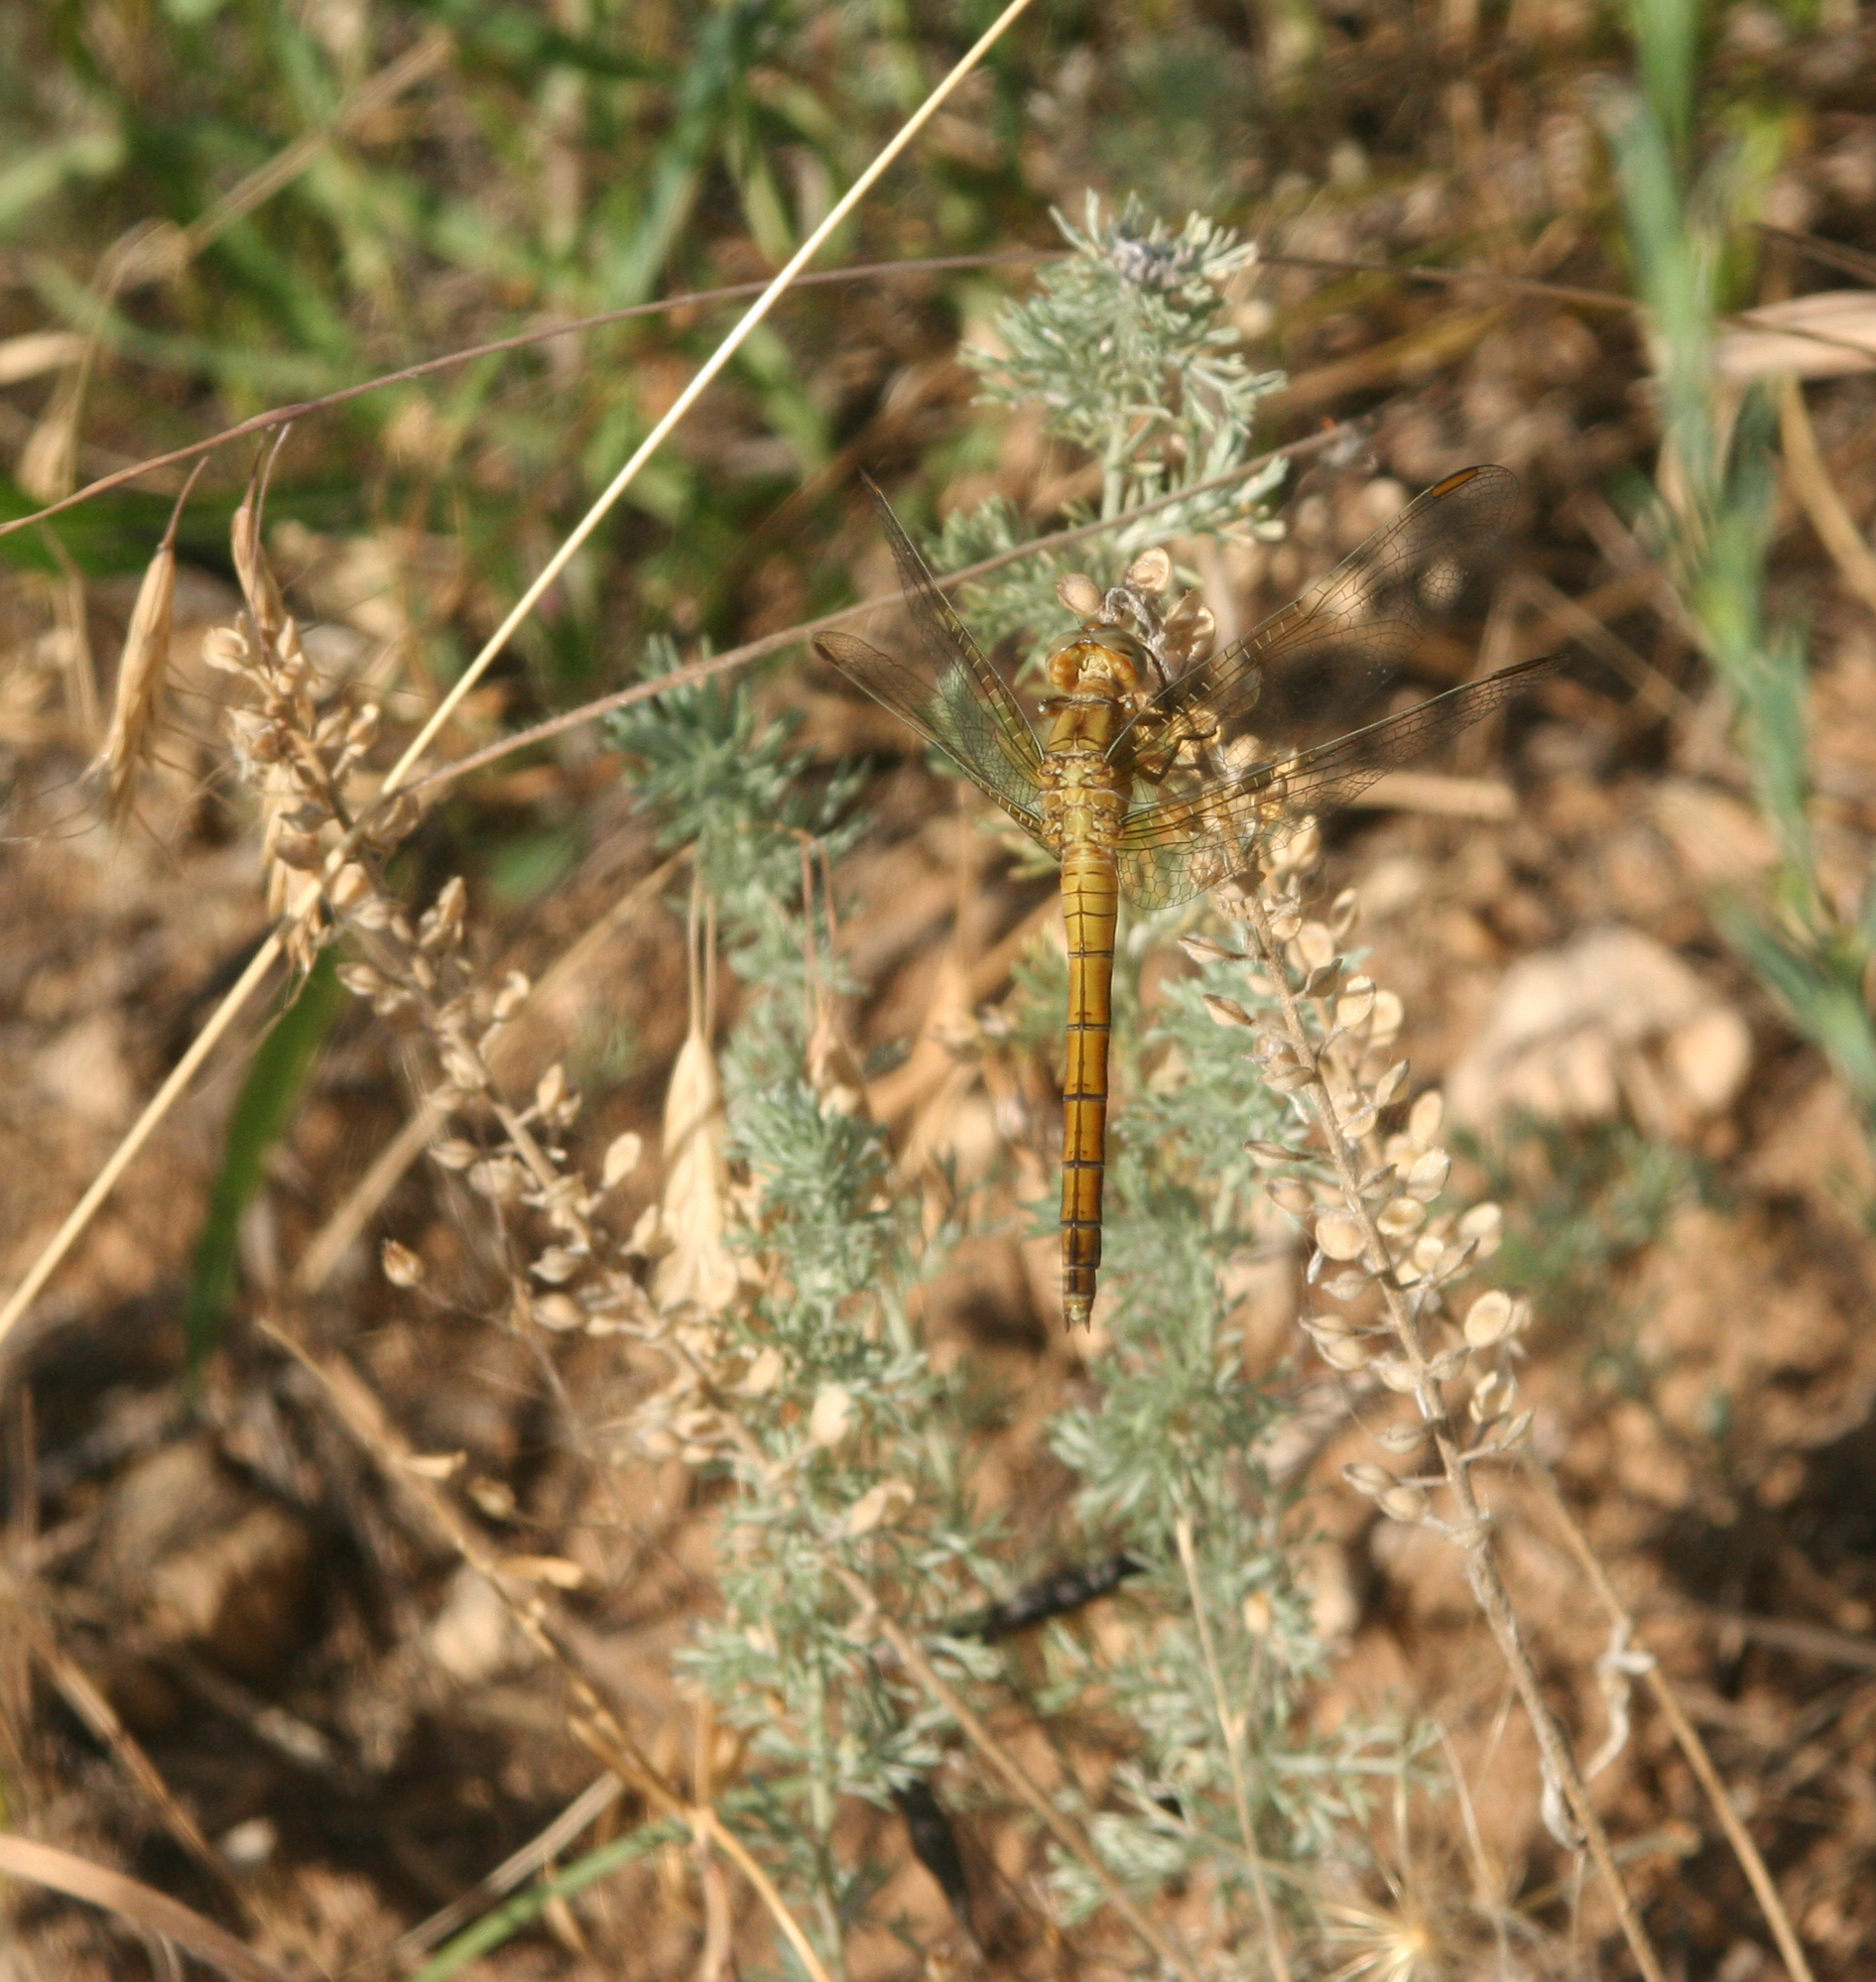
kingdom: Animalia
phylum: Arthropoda
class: Insecta
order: Odonata
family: Libellulidae
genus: Orthetrum
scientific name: Orthetrum coerulescens
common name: Keeled skimmer
